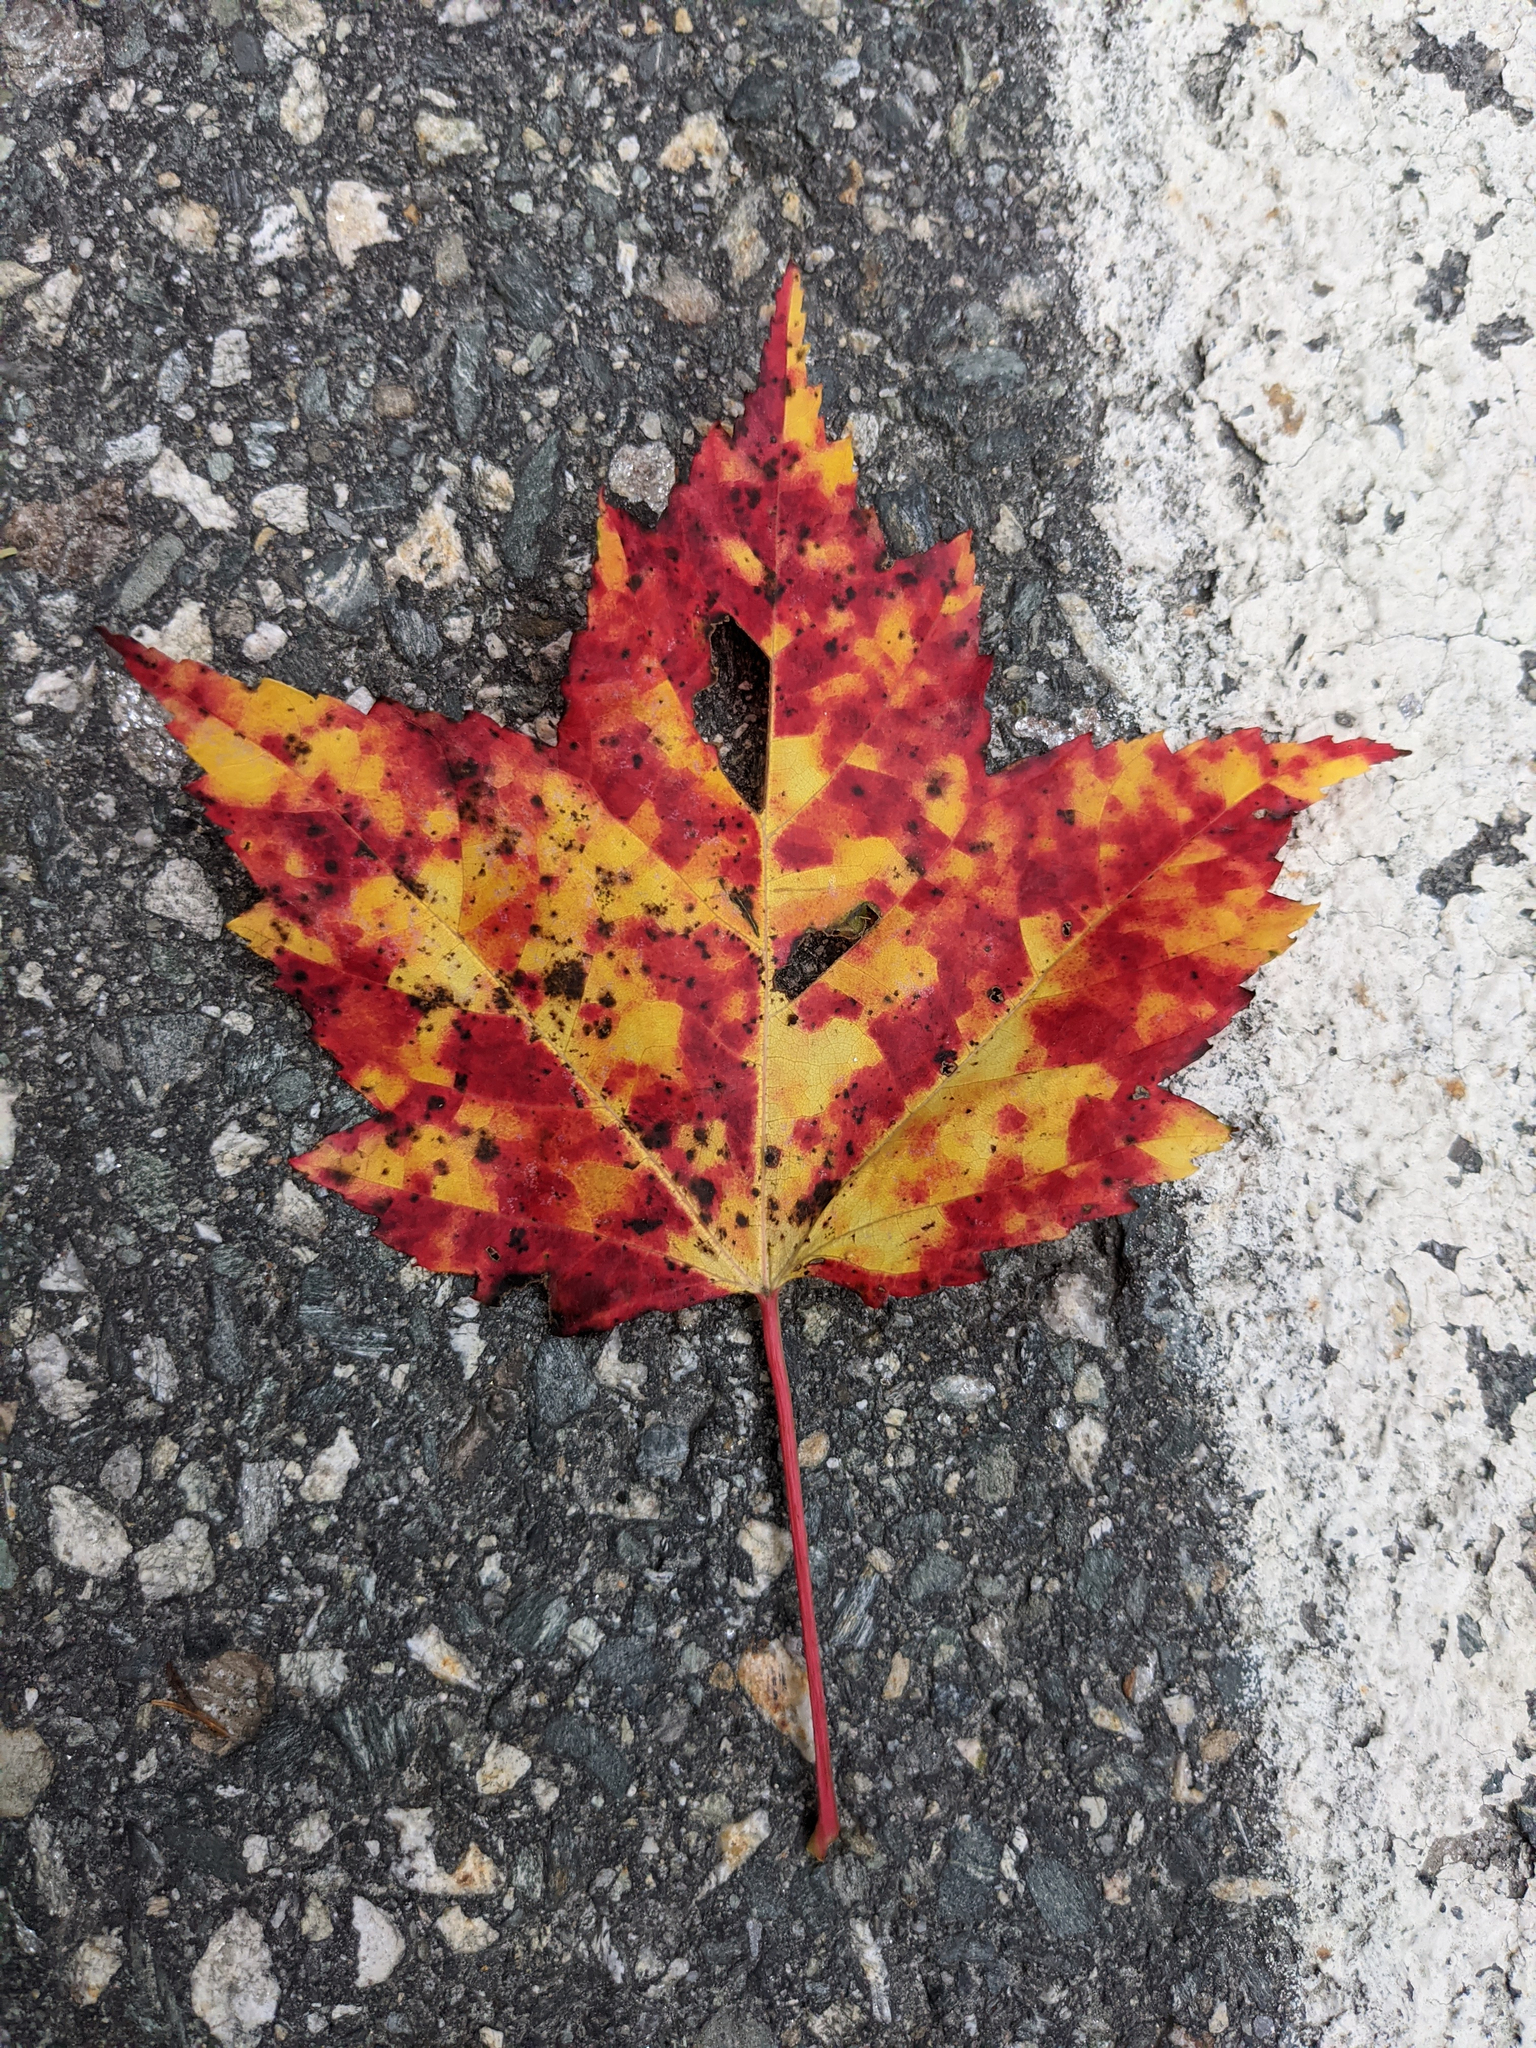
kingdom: Plantae
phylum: Tracheophyta
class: Magnoliopsida
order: Sapindales
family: Sapindaceae
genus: Acer
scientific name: Acer rubrum
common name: Red maple
